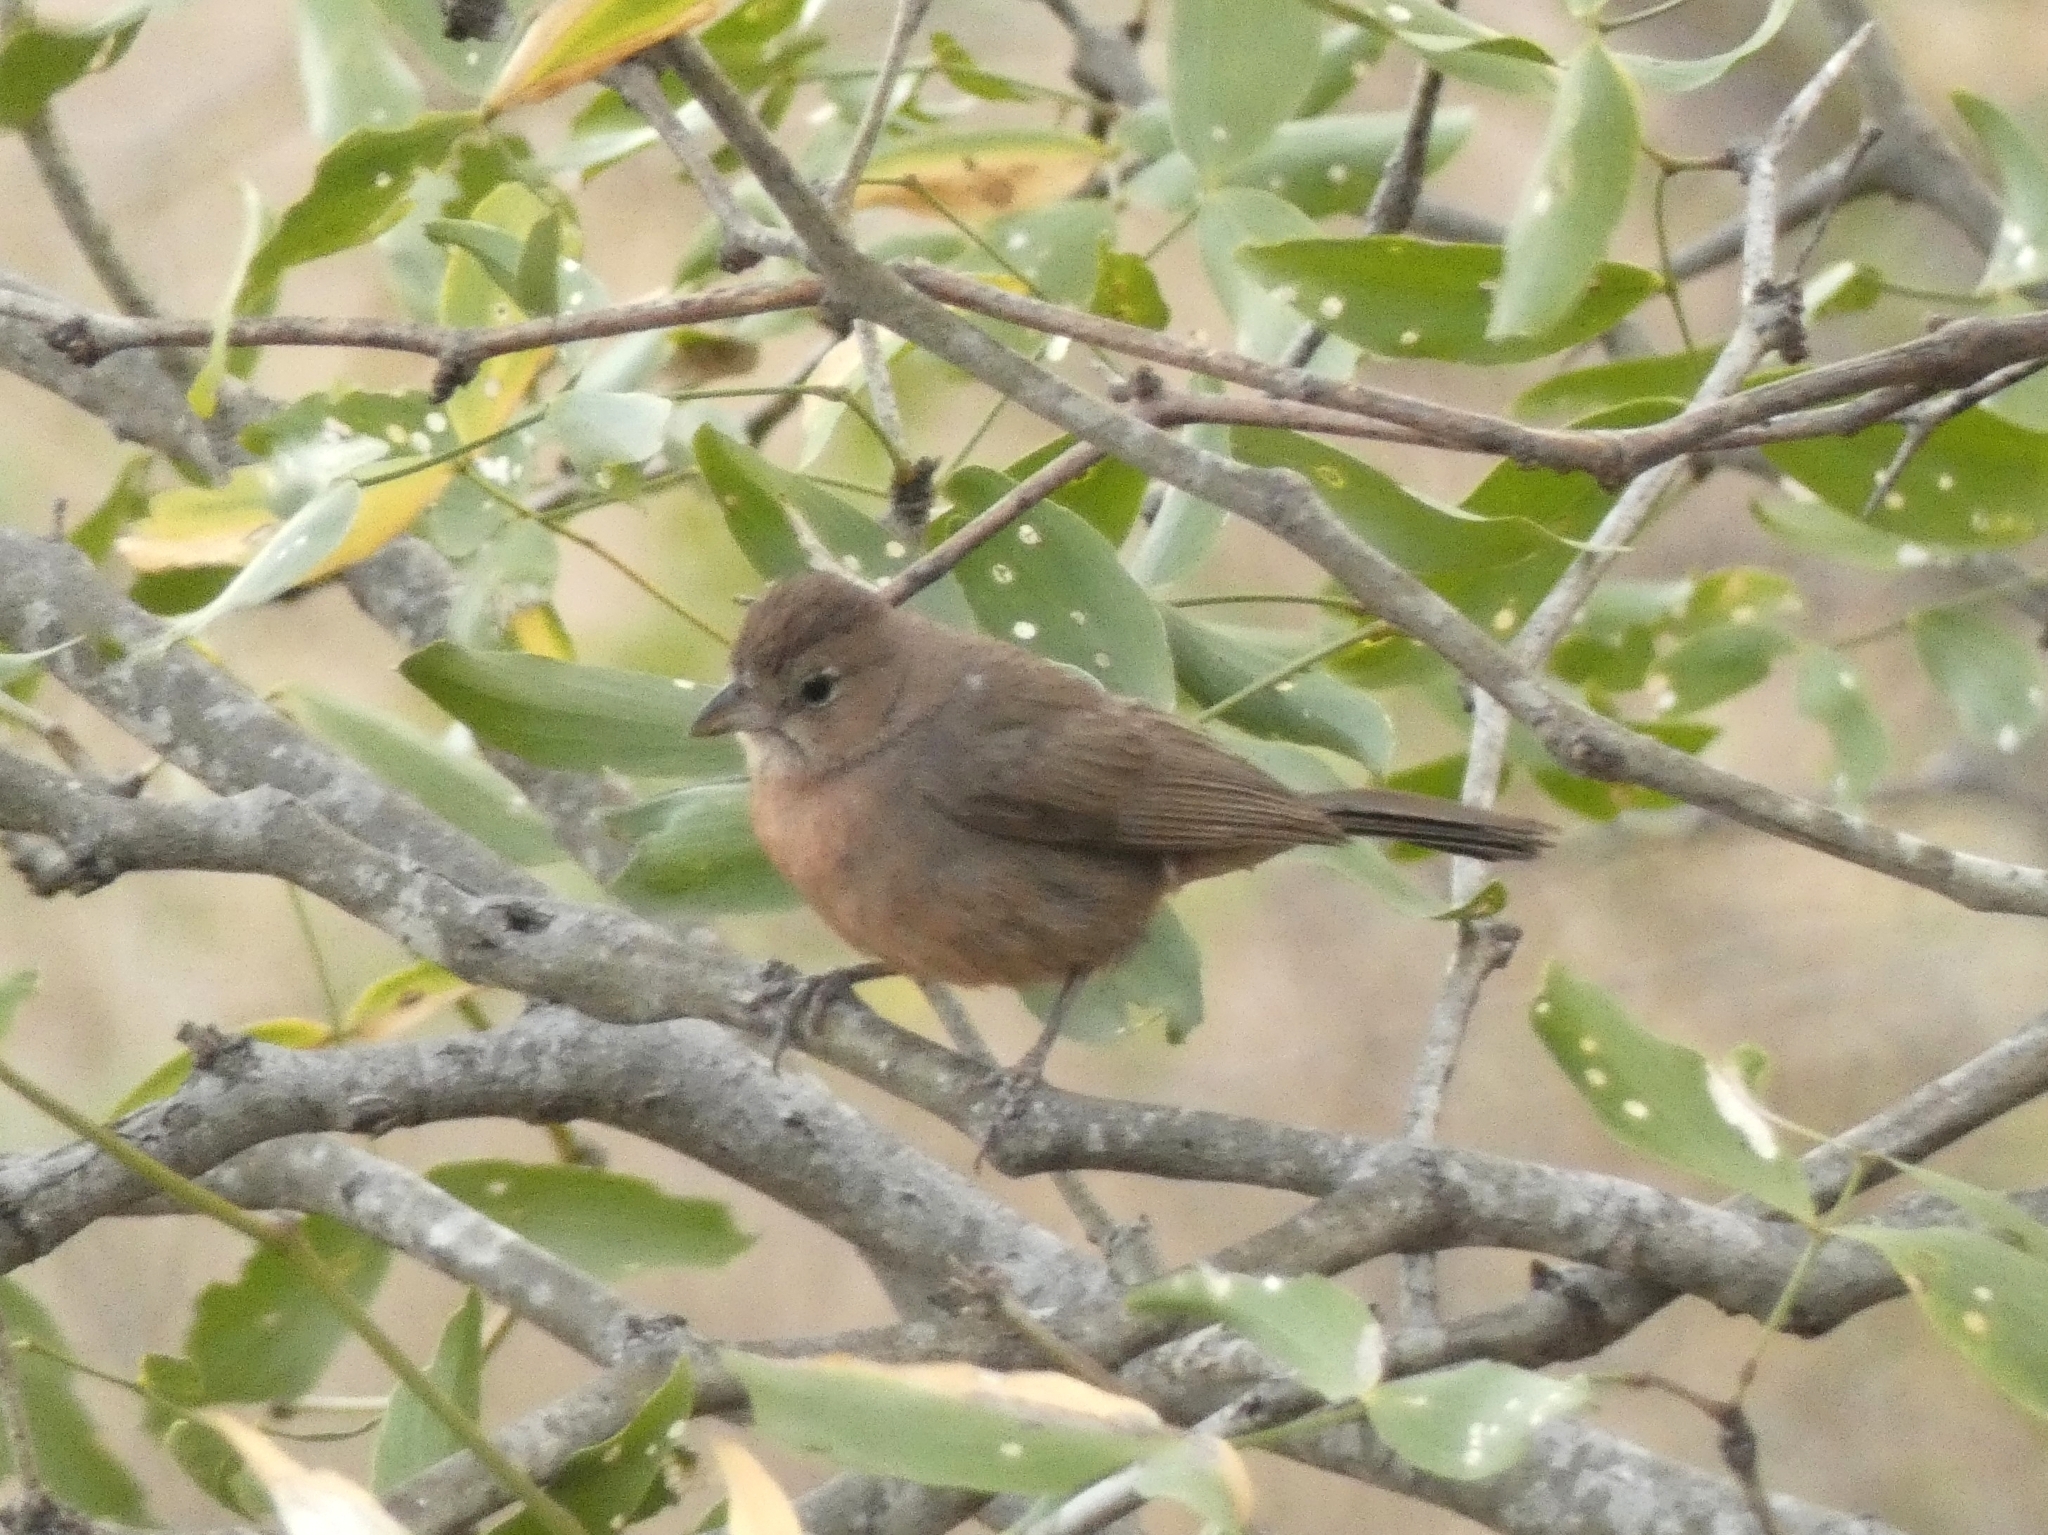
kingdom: Animalia
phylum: Chordata
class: Aves
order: Passeriformes
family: Thraupidae
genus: Coryphospingus
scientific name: Coryphospingus cucullatus
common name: Red pileated finch
